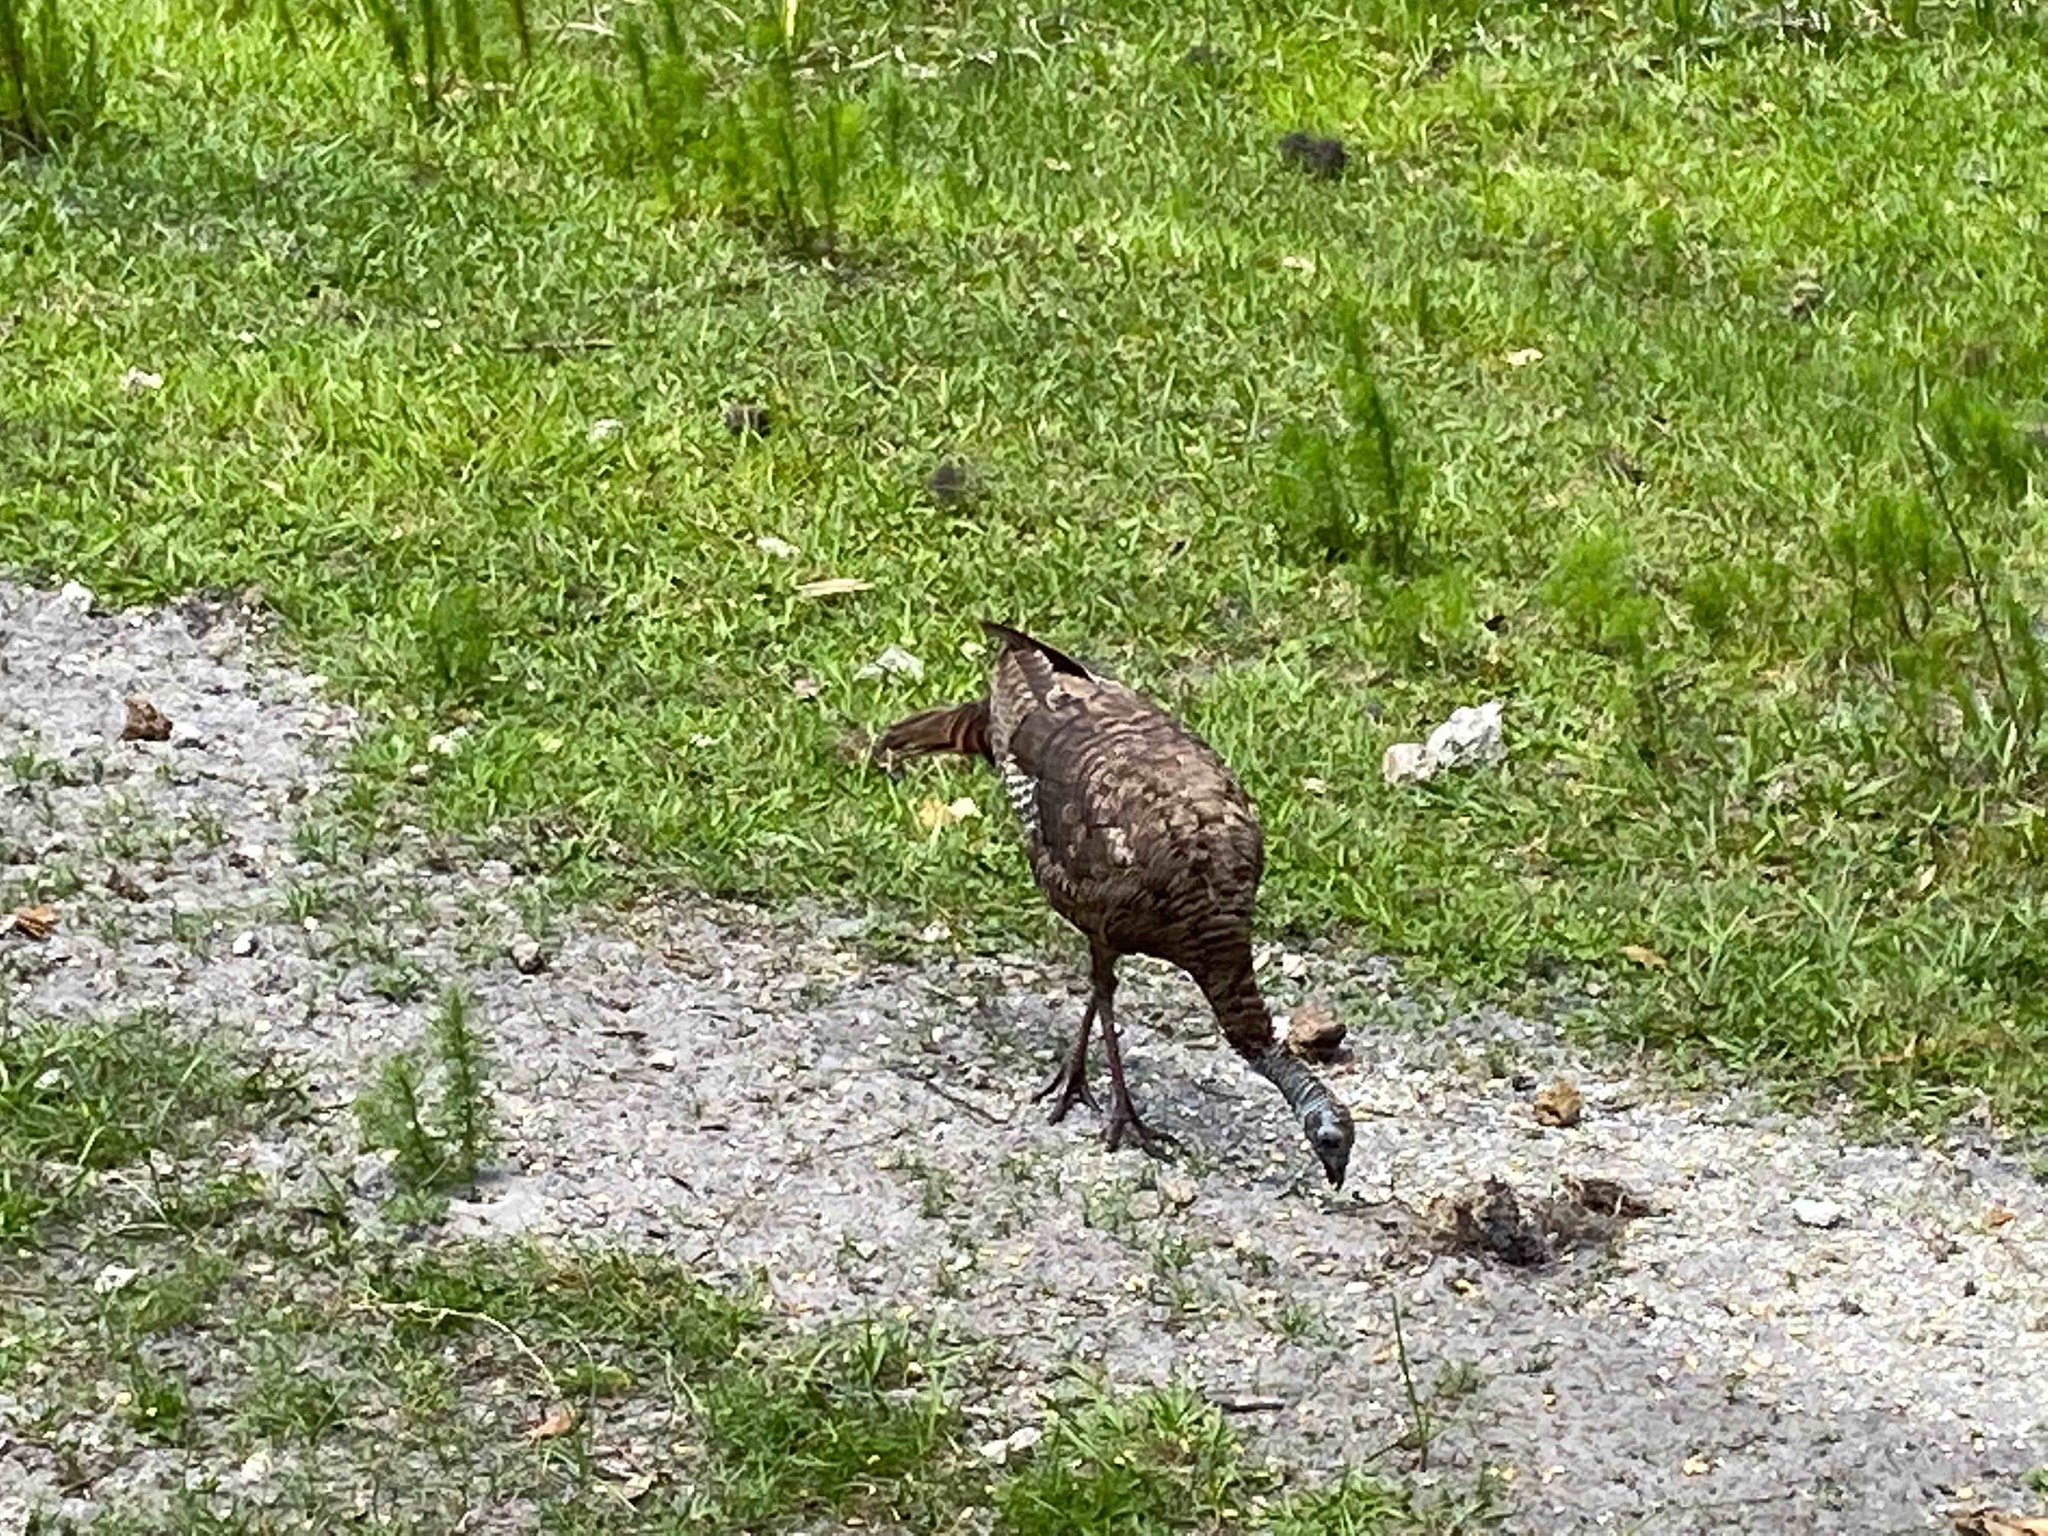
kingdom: Animalia
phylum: Chordata
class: Aves
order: Galliformes
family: Phasianidae
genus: Meleagris
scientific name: Meleagris gallopavo
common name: Wild turkey
